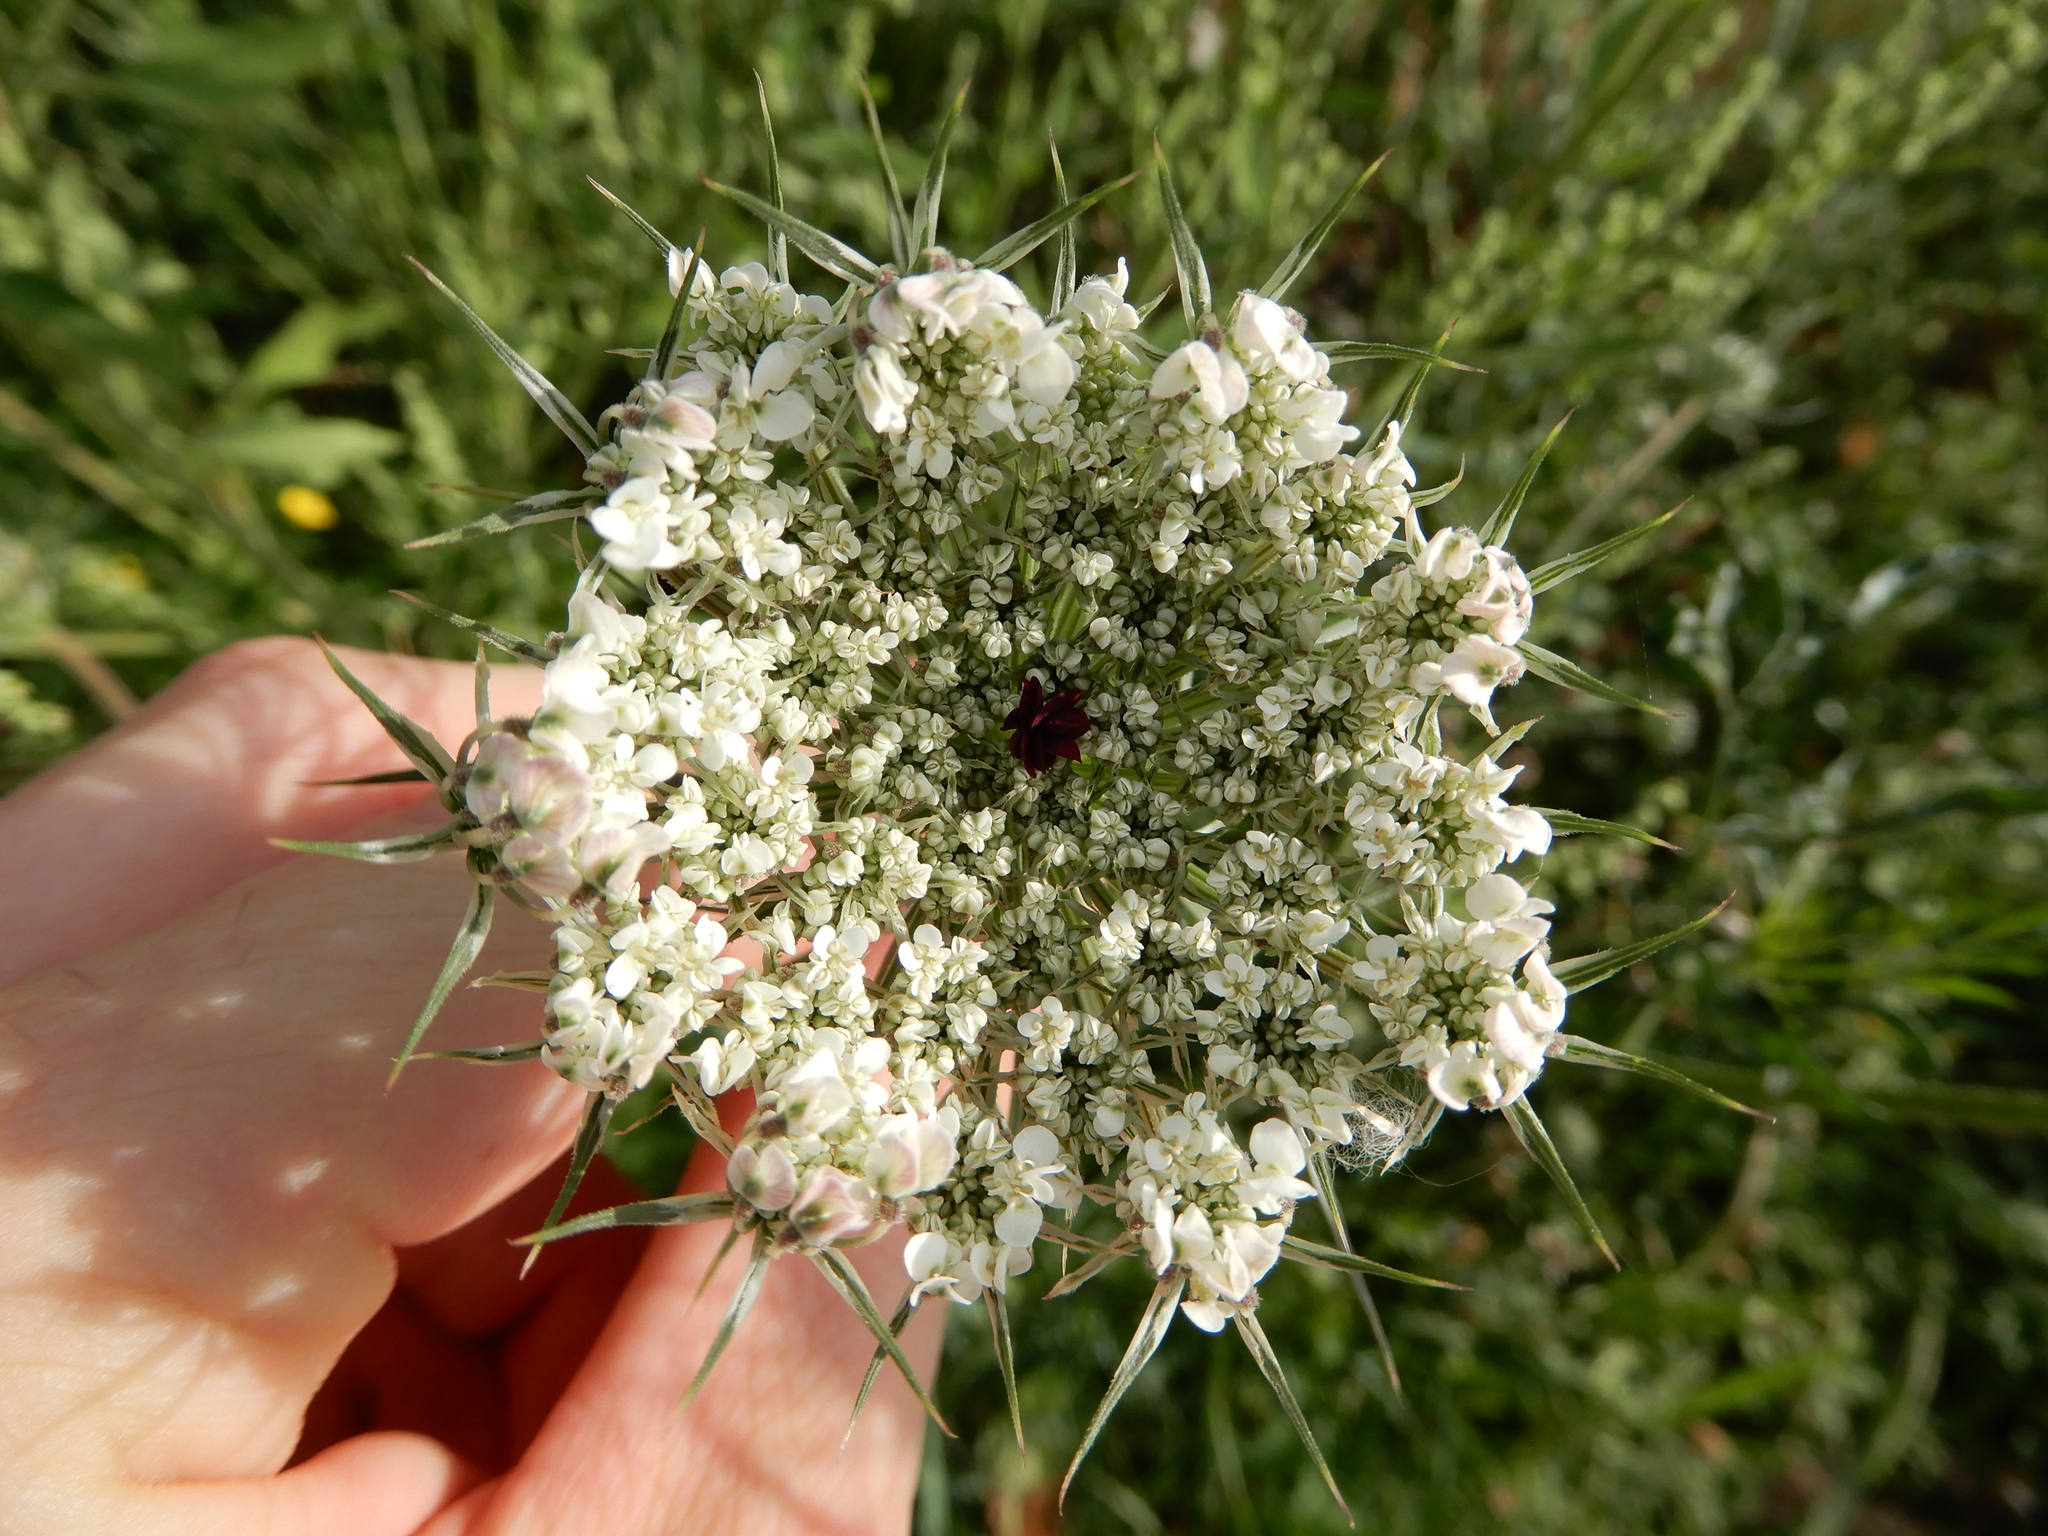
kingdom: Plantae
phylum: Tracheophyta
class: Magnoliopsida
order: Apiales
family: Apiaceae
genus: Daucus
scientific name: Daucus carota
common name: Wild carrot
